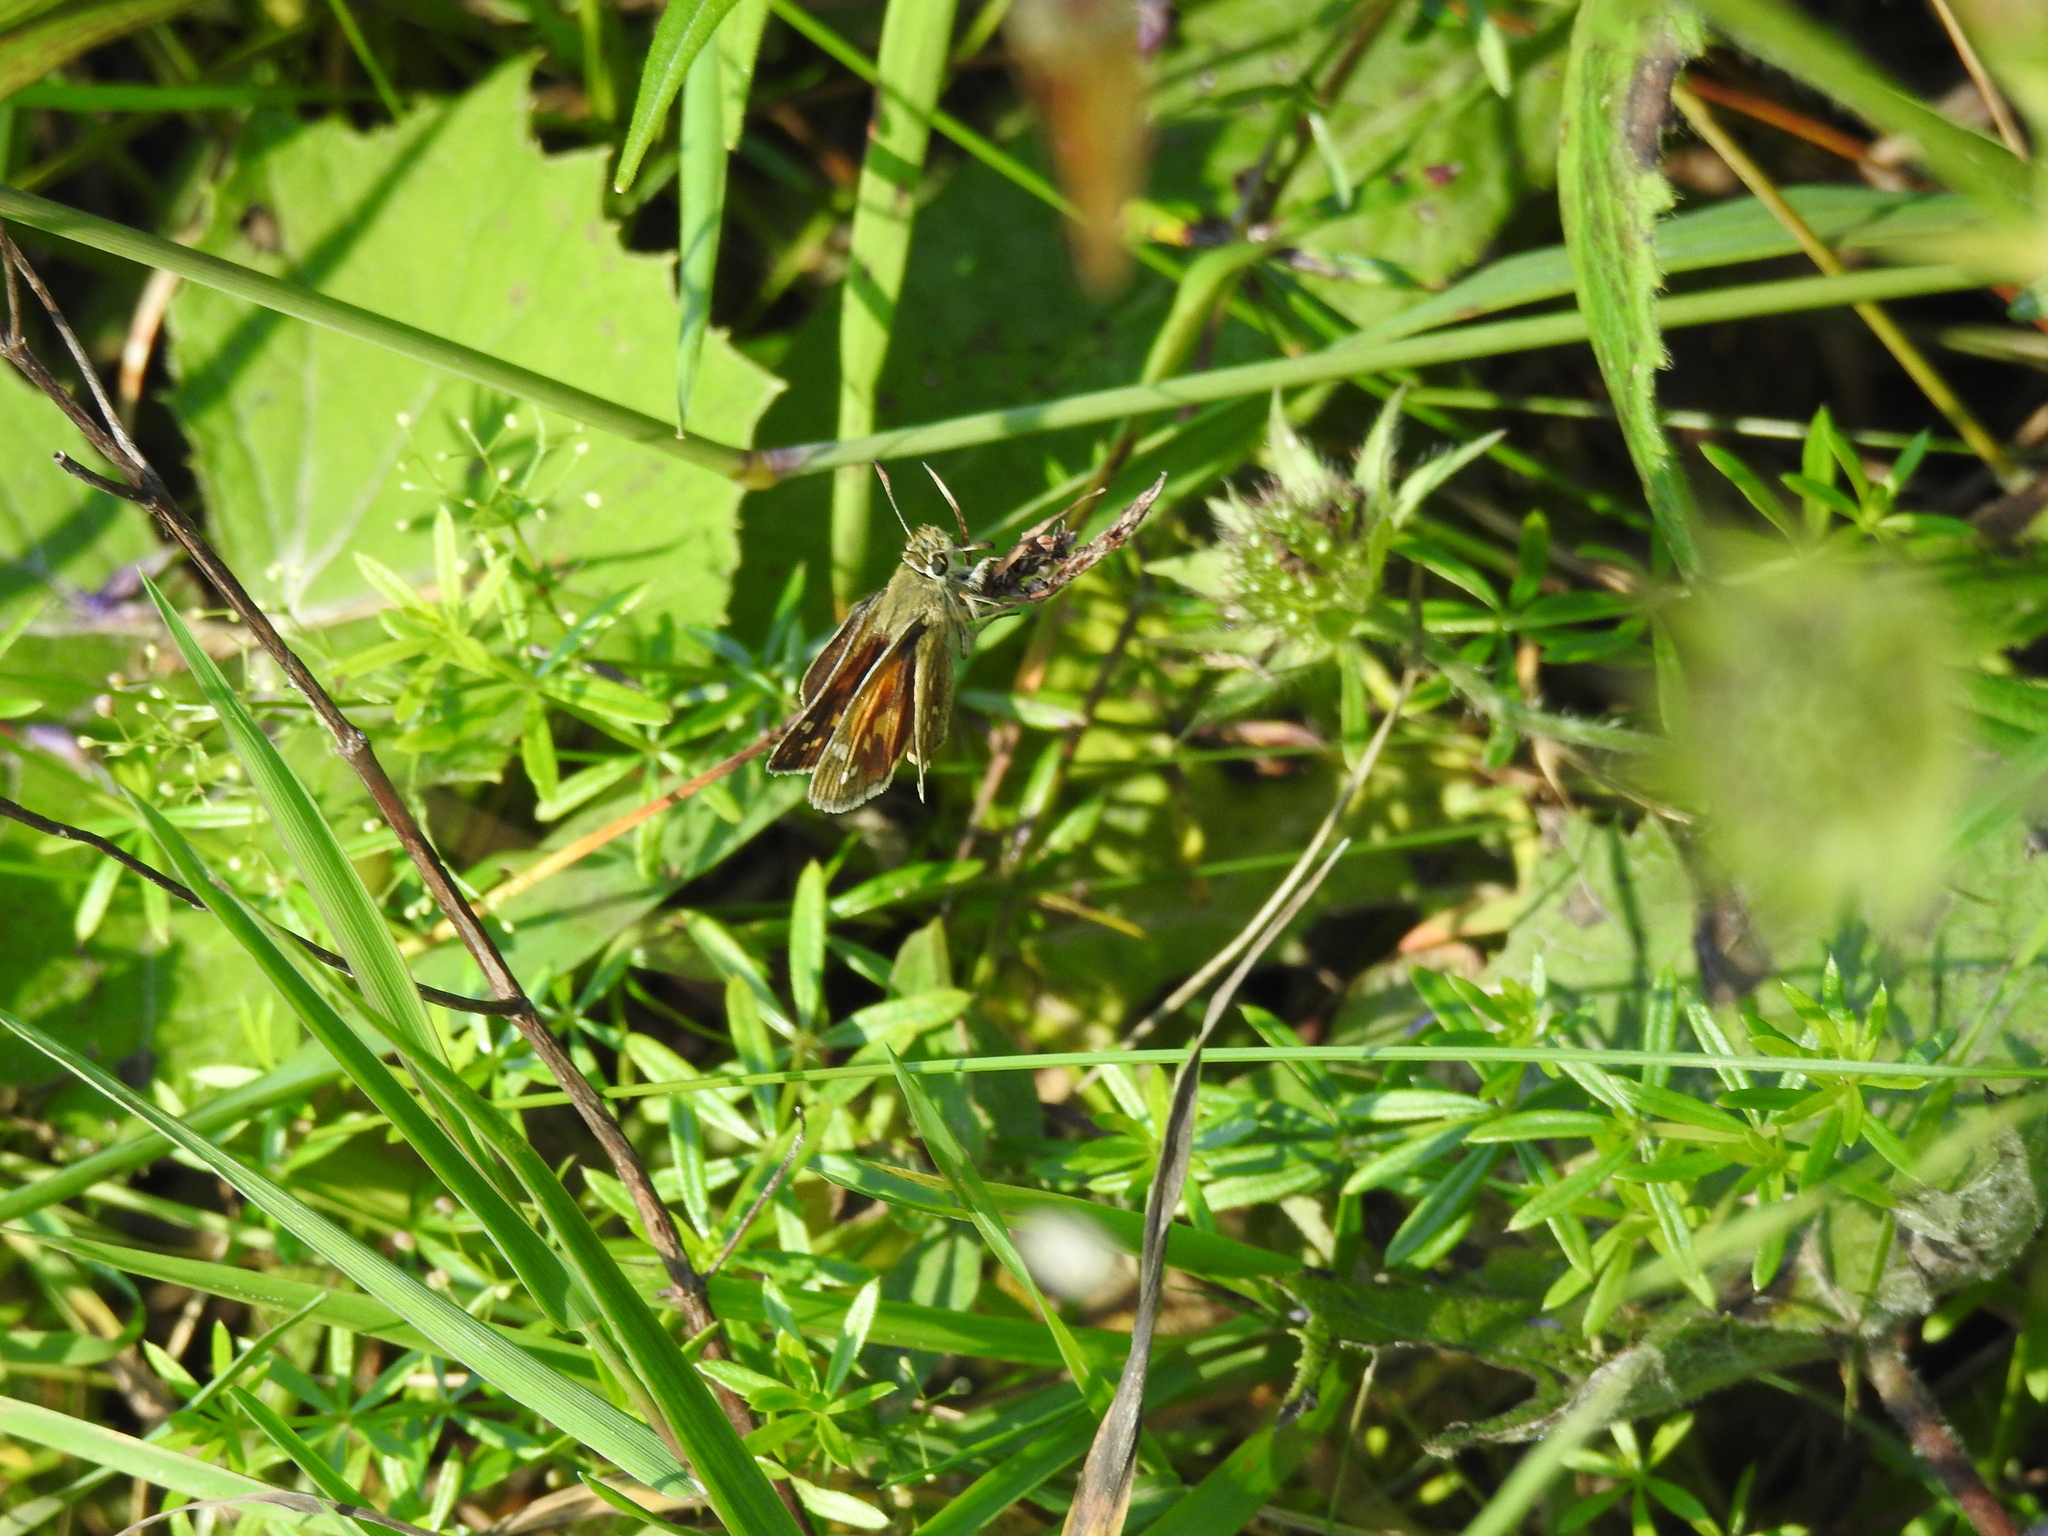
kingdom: Animalia
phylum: Arthropoda
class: Insecta
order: Lepidoptera
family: Hesperiidae
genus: Hesperia
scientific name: Hesperia comma
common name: Common branded skipper
